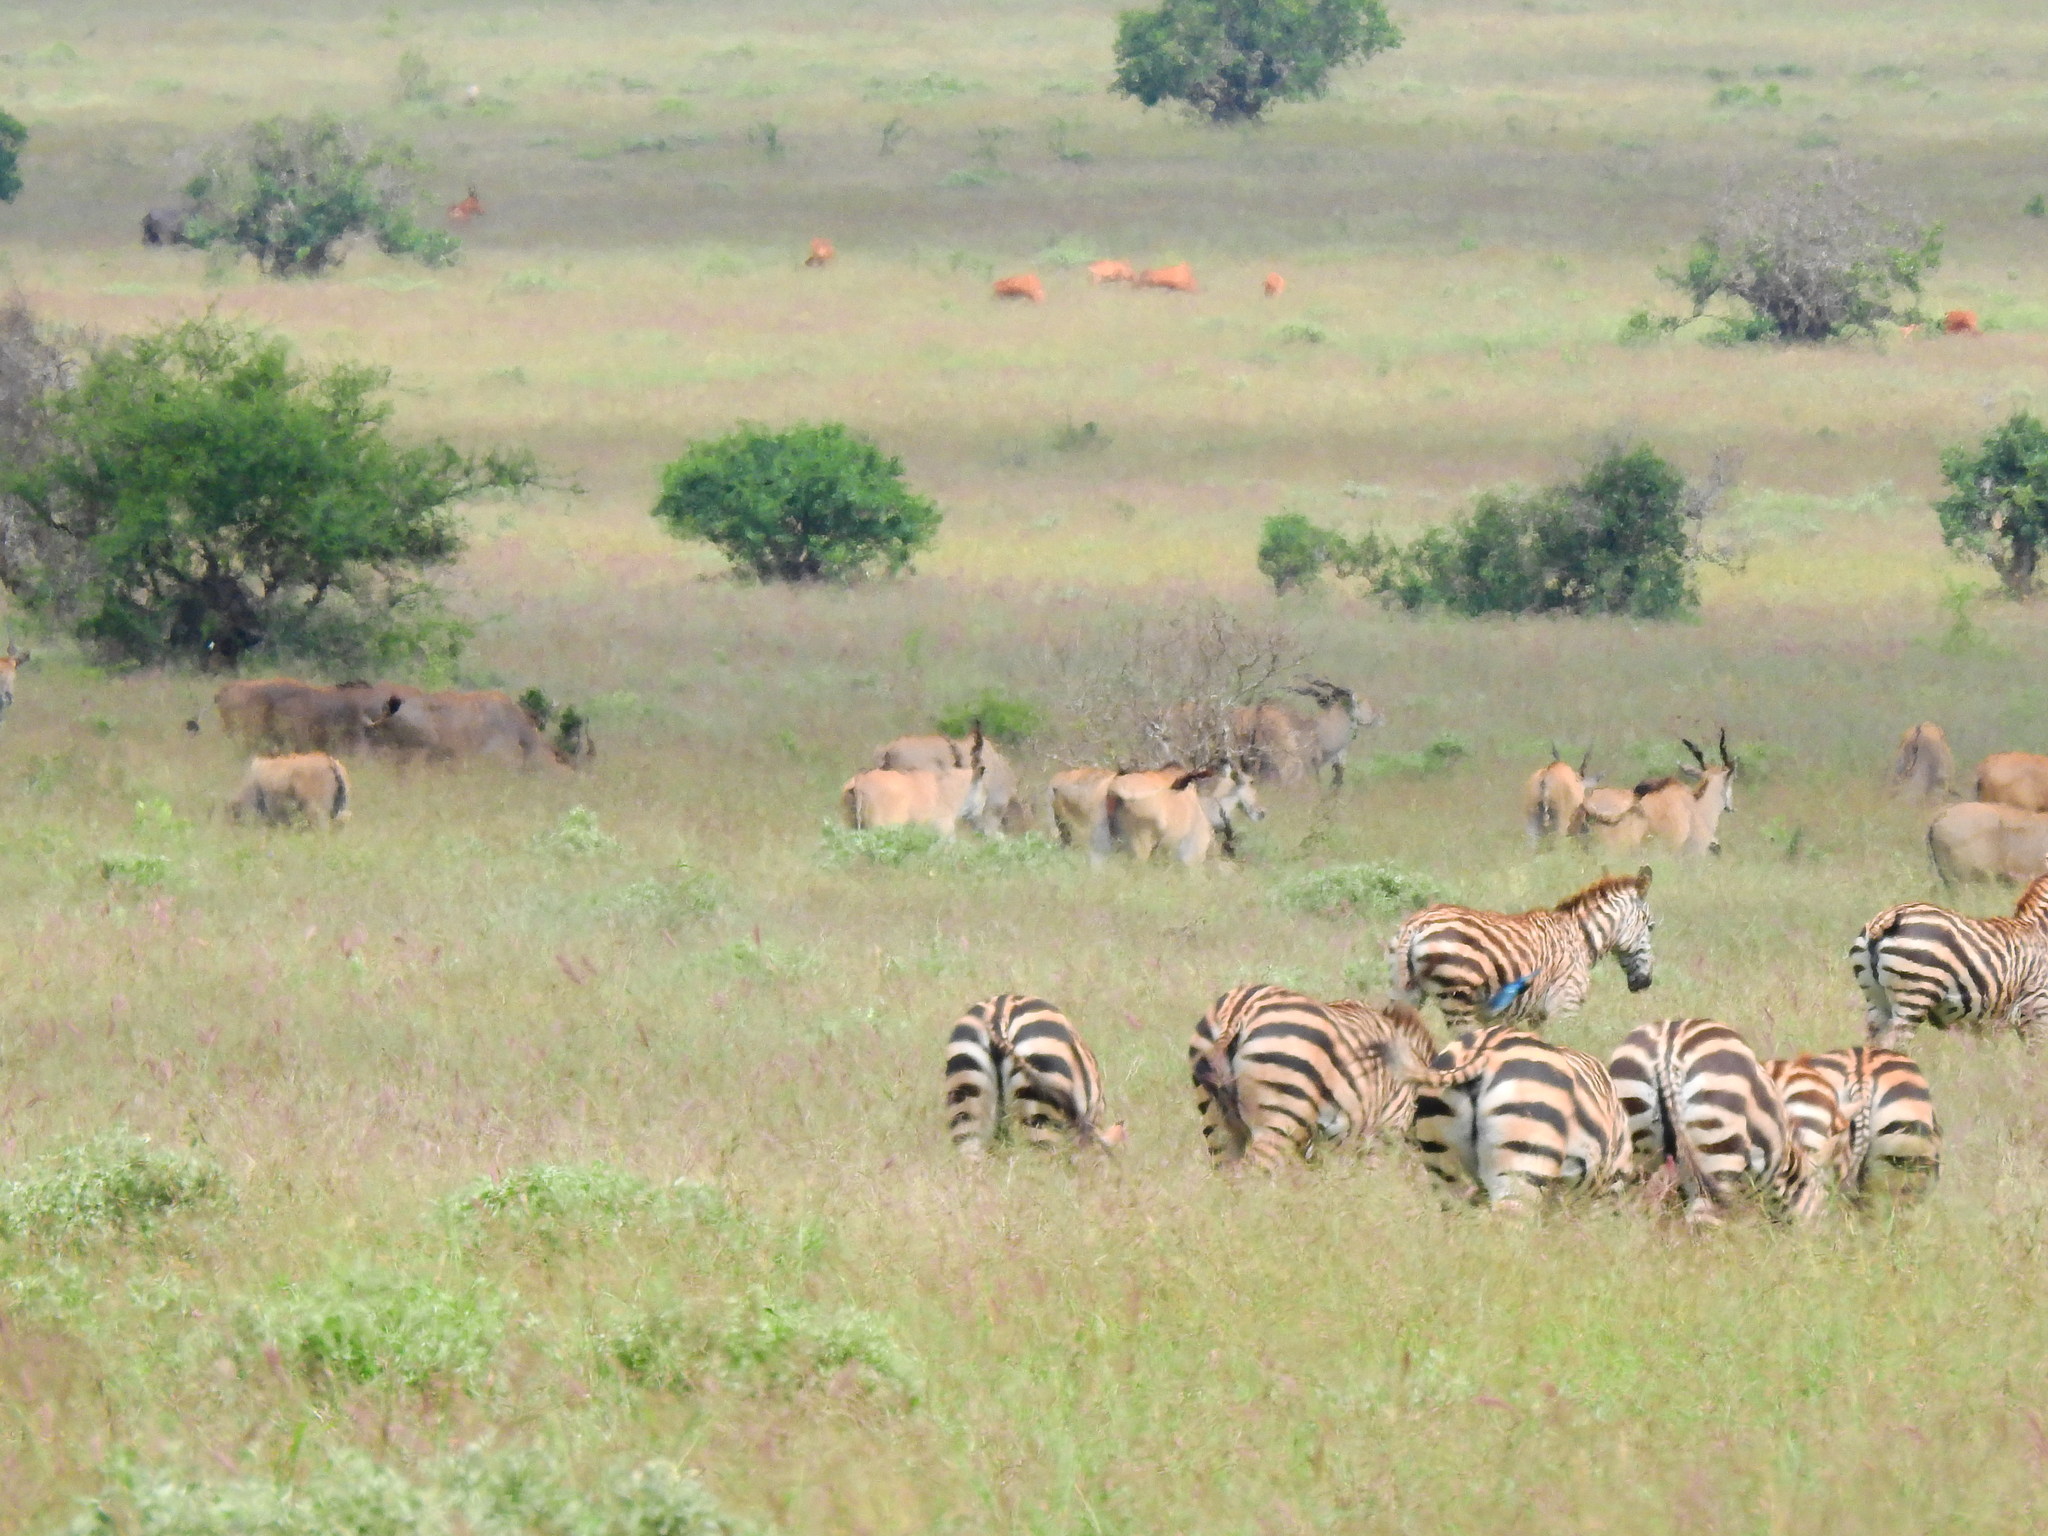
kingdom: Animalia
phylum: Chordata
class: Mammalia
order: Artiodactyla
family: Bovidae
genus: Taurotragus
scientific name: Taurotragus oryx
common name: Common eland
